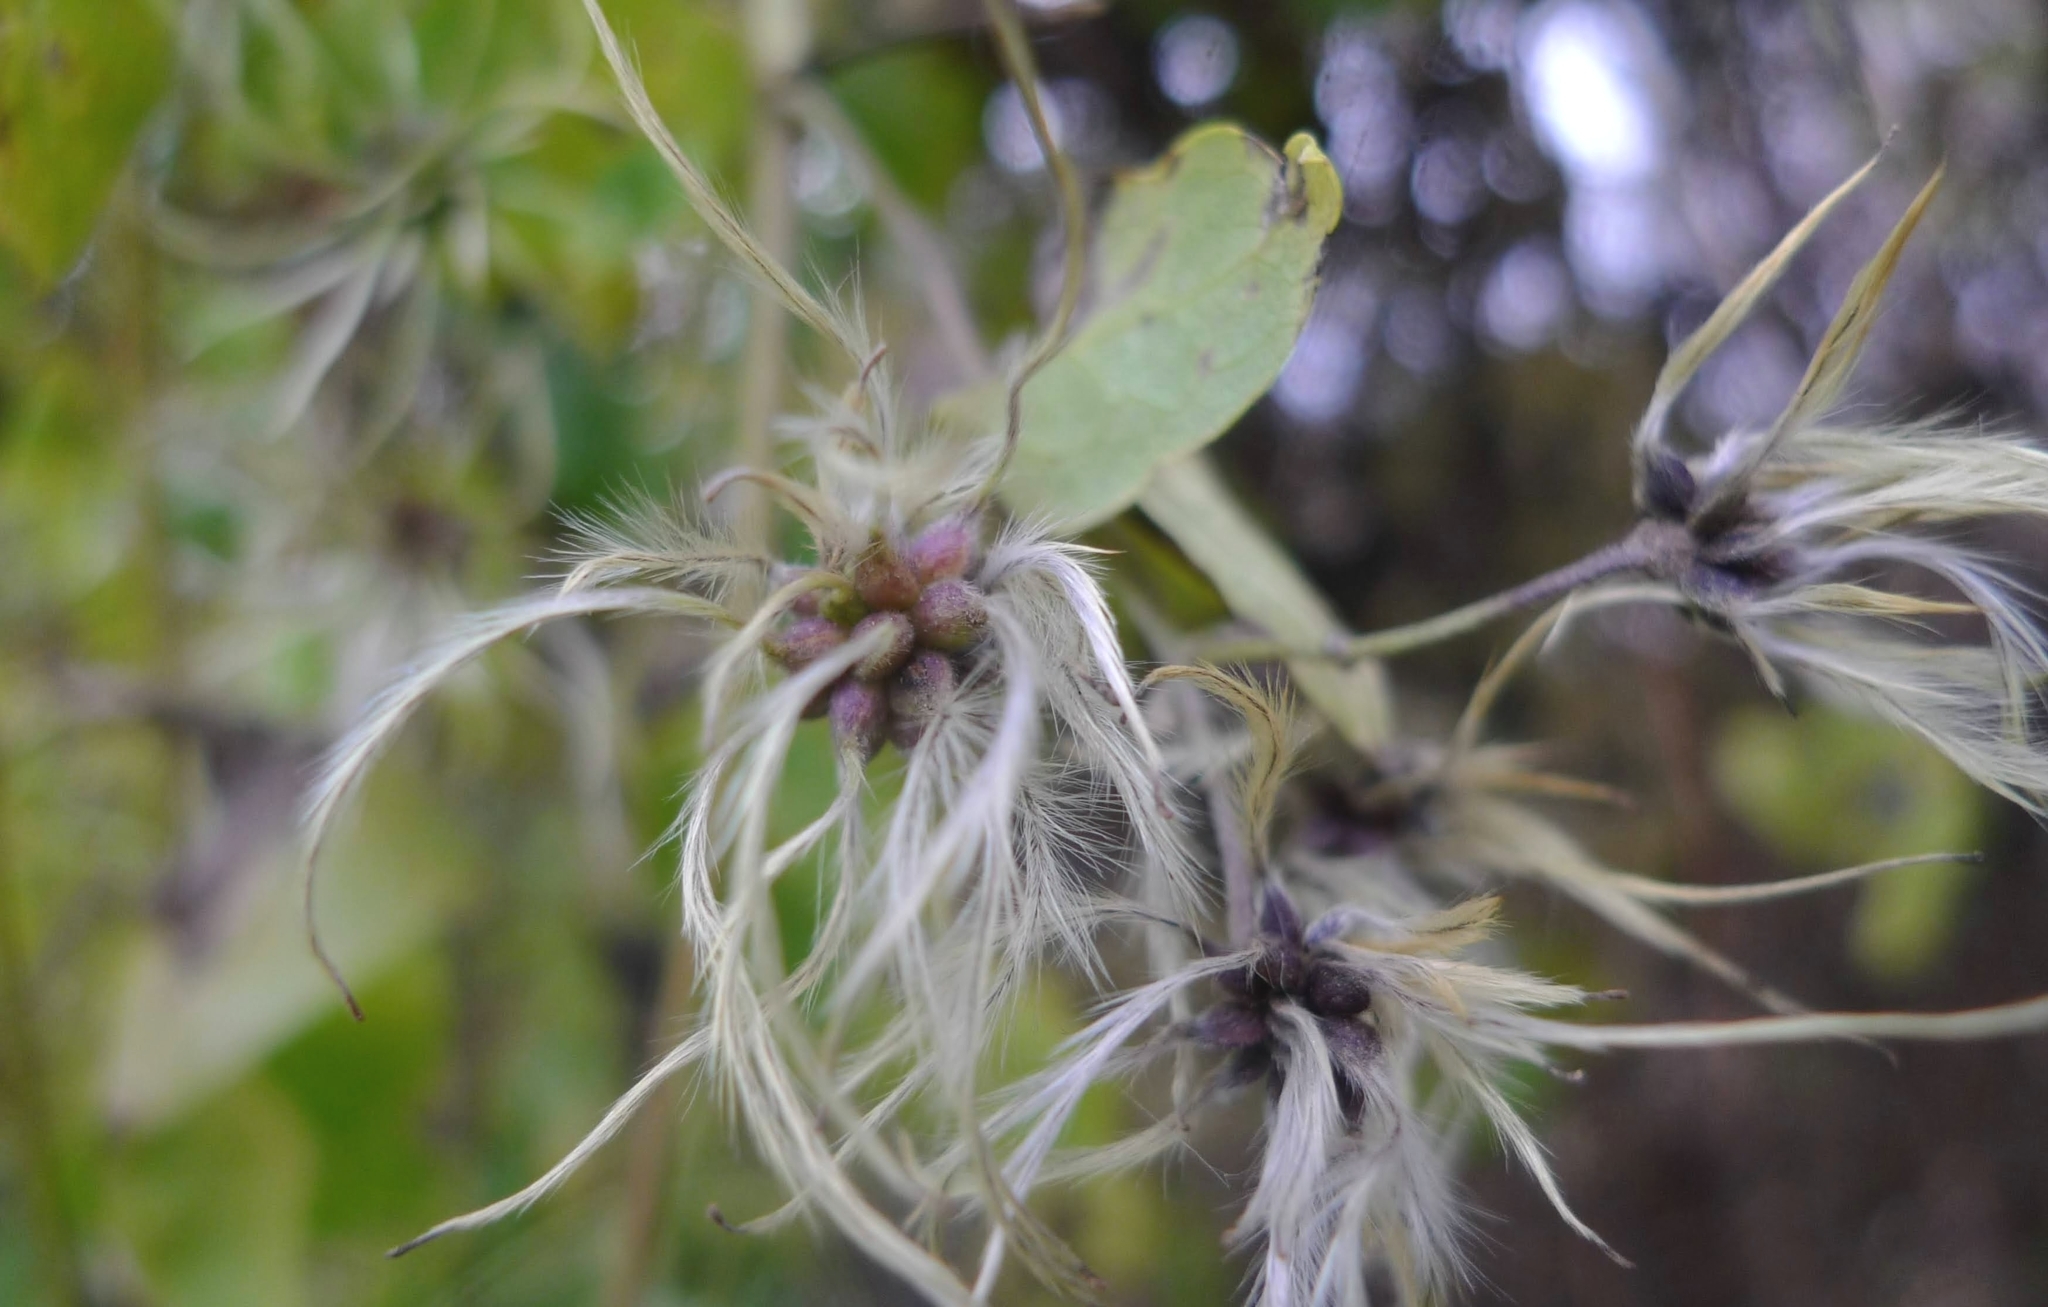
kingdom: Plantae
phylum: Tracheophyta
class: Magnoliopsida
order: Ranunculales
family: Ranunculaceae
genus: Clematis
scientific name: Clematis vitalba
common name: Evergreen clematis
